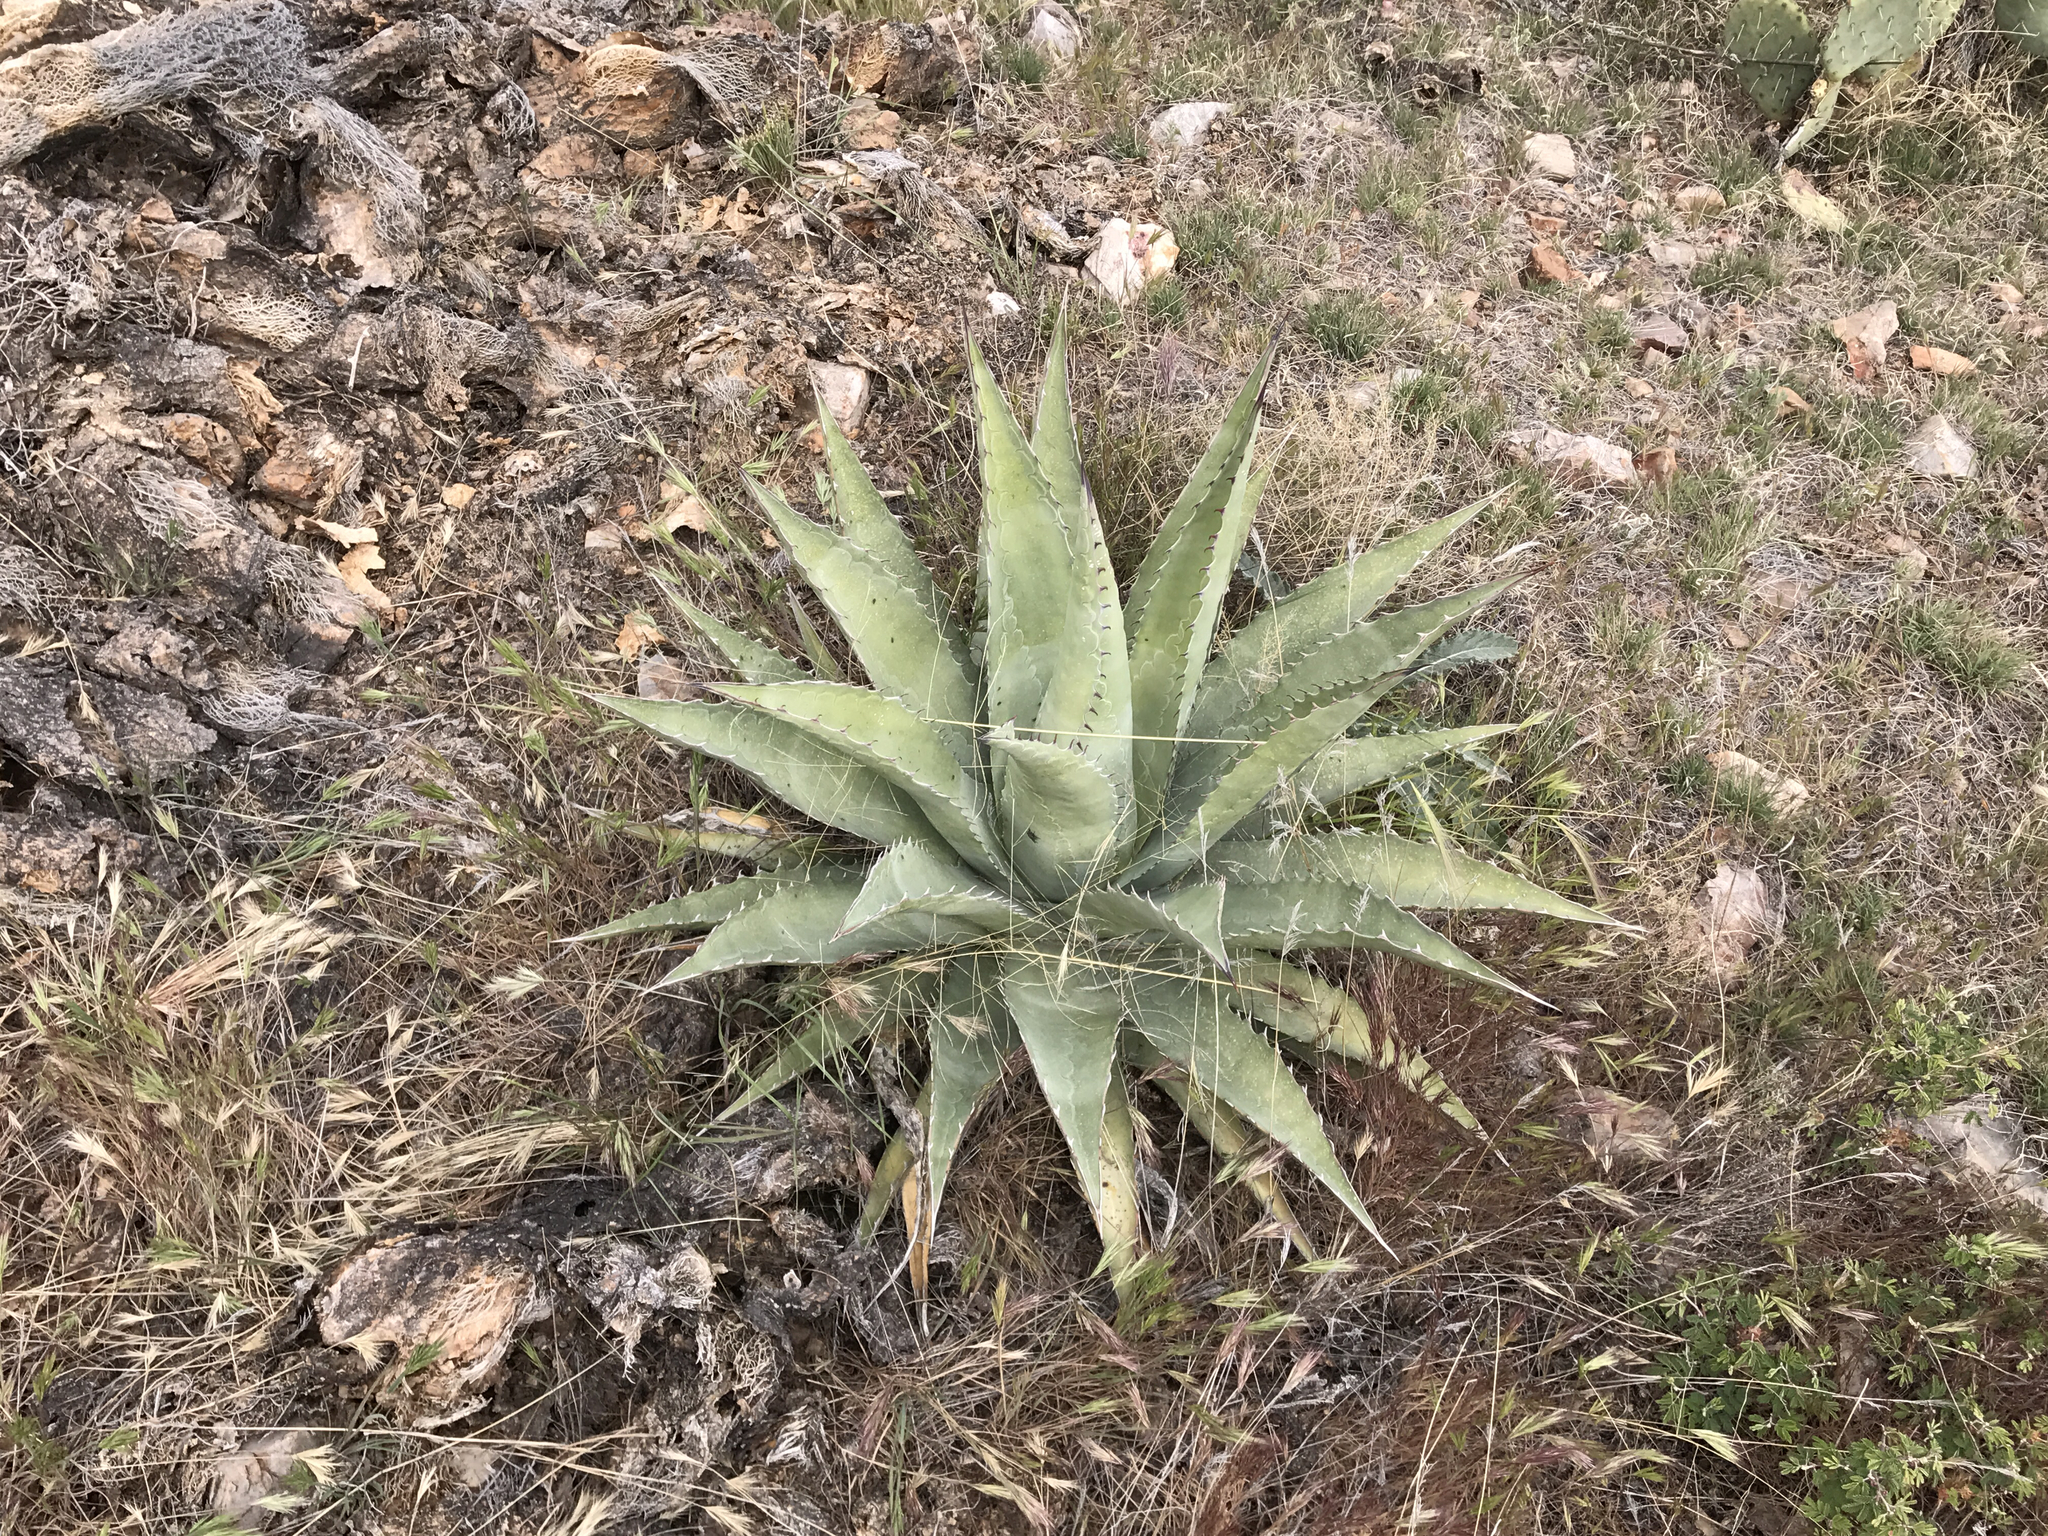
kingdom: Plantae
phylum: Tracheophyta
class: Liliopsida
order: Asparagales
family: Asparagaceae
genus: Agave
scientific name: Agave palmeri
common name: Palmer agave
